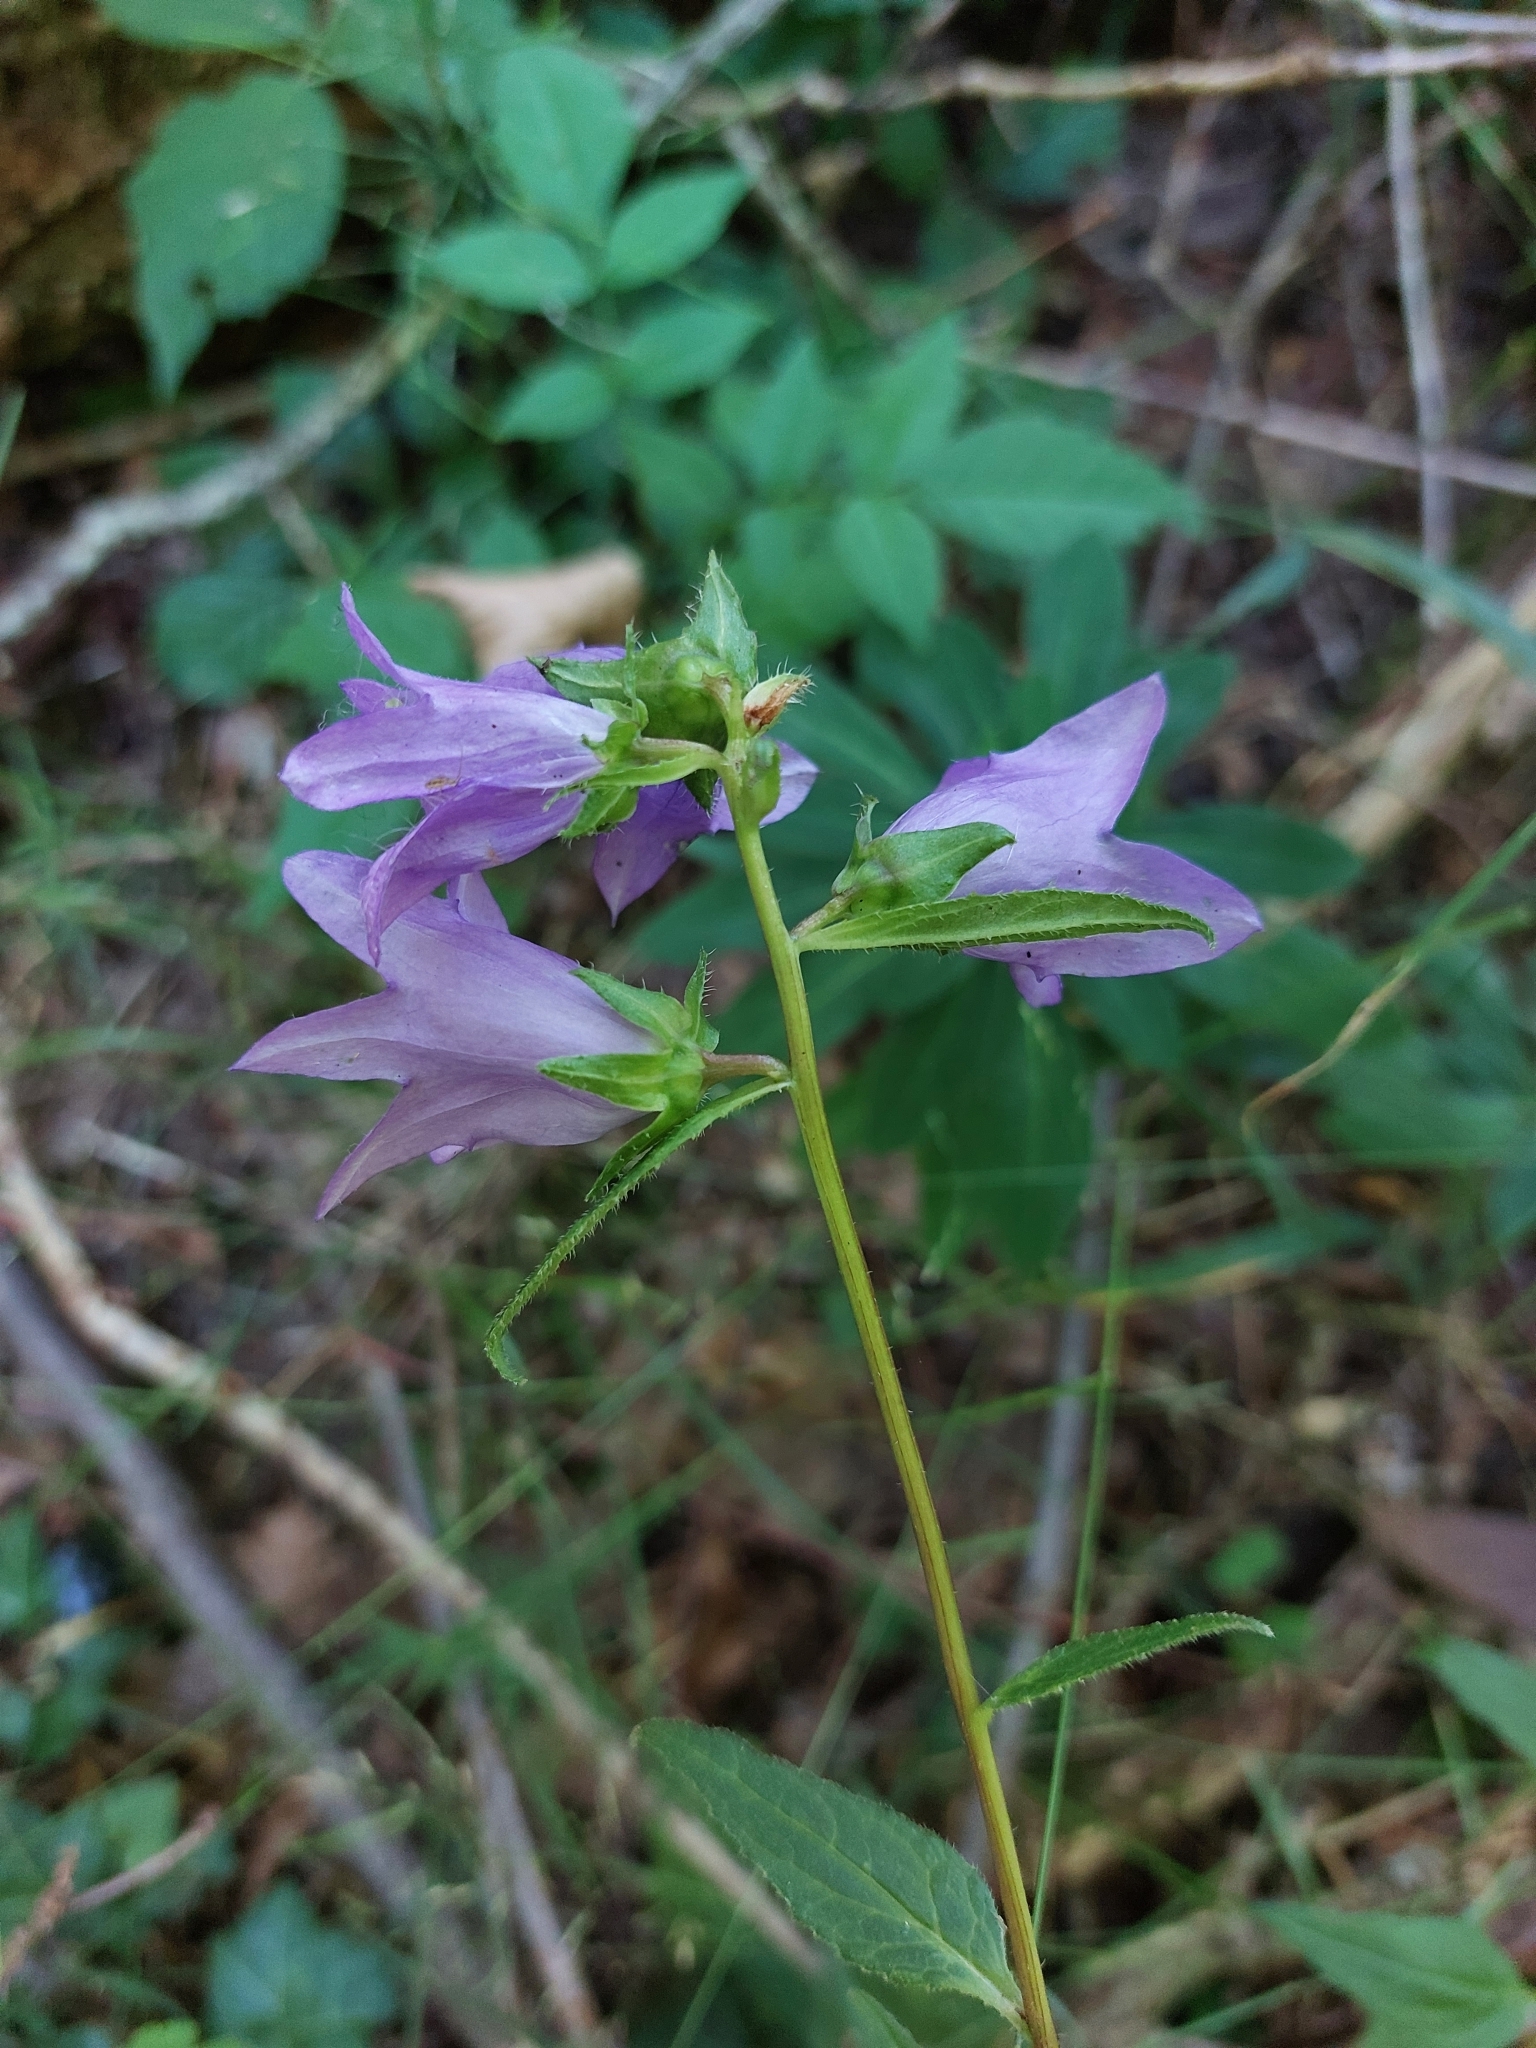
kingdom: Plantae
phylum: Tracheophyta
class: Magnoliopsida
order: Asterales
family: Campanulaceae
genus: Campanula
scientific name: Campanula trachelium
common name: Nettle-leaved bellflower
